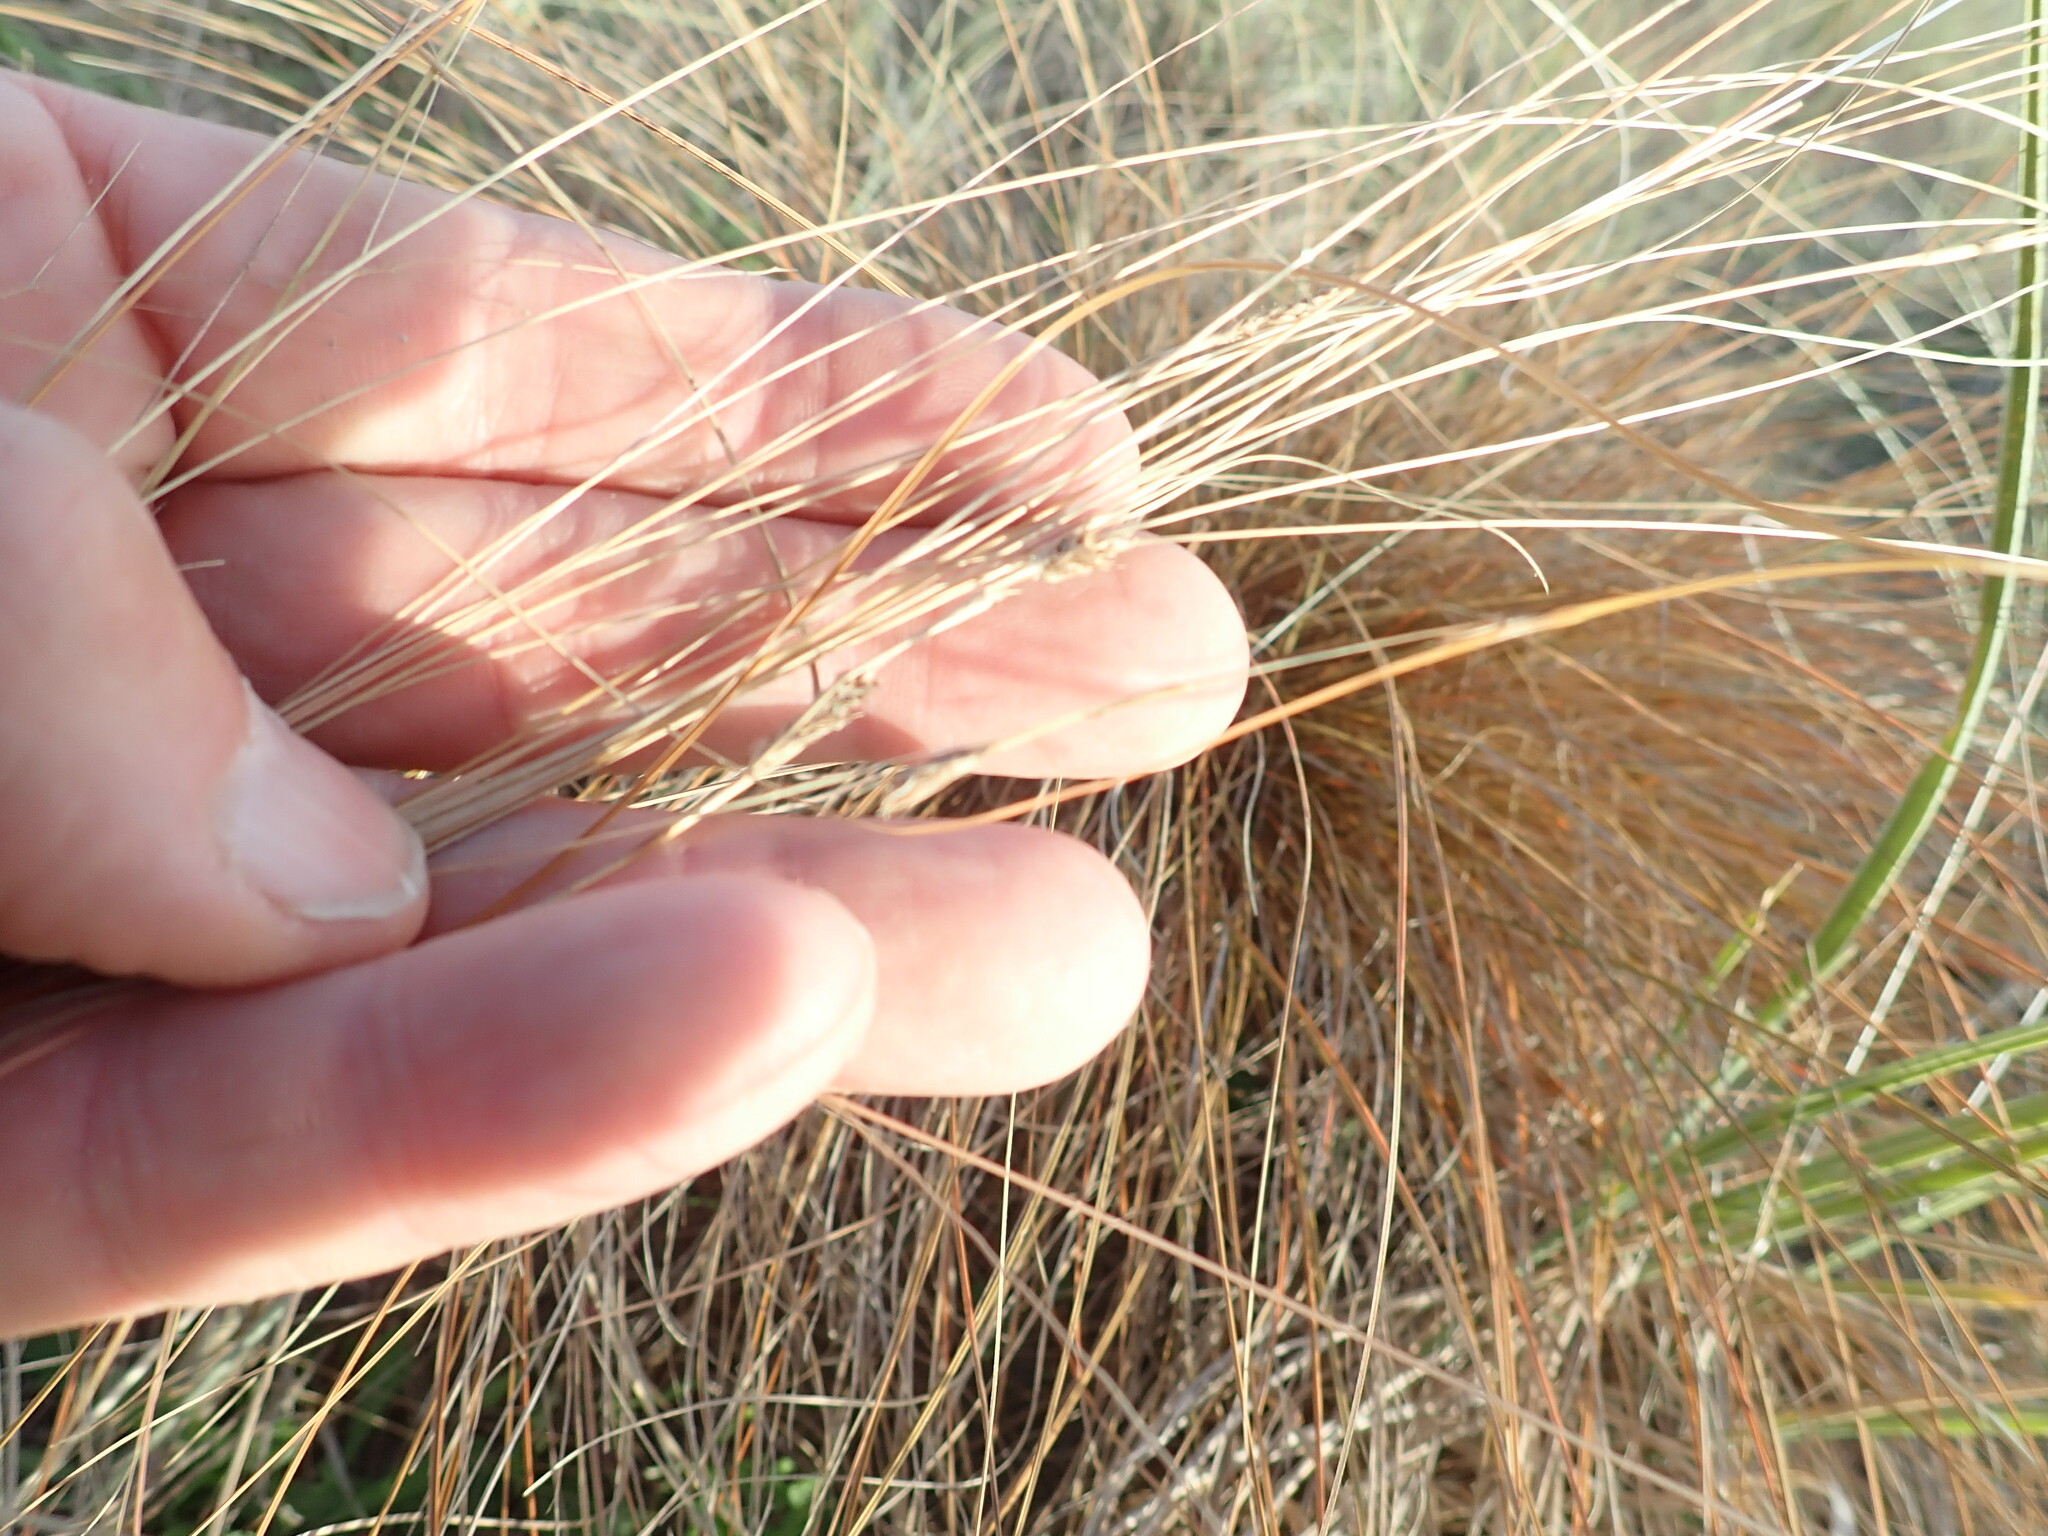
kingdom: Plantae
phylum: Tracheophyta
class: Liliopsida
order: Poales
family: Cyperaceae
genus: Carex
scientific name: Carex testacea
